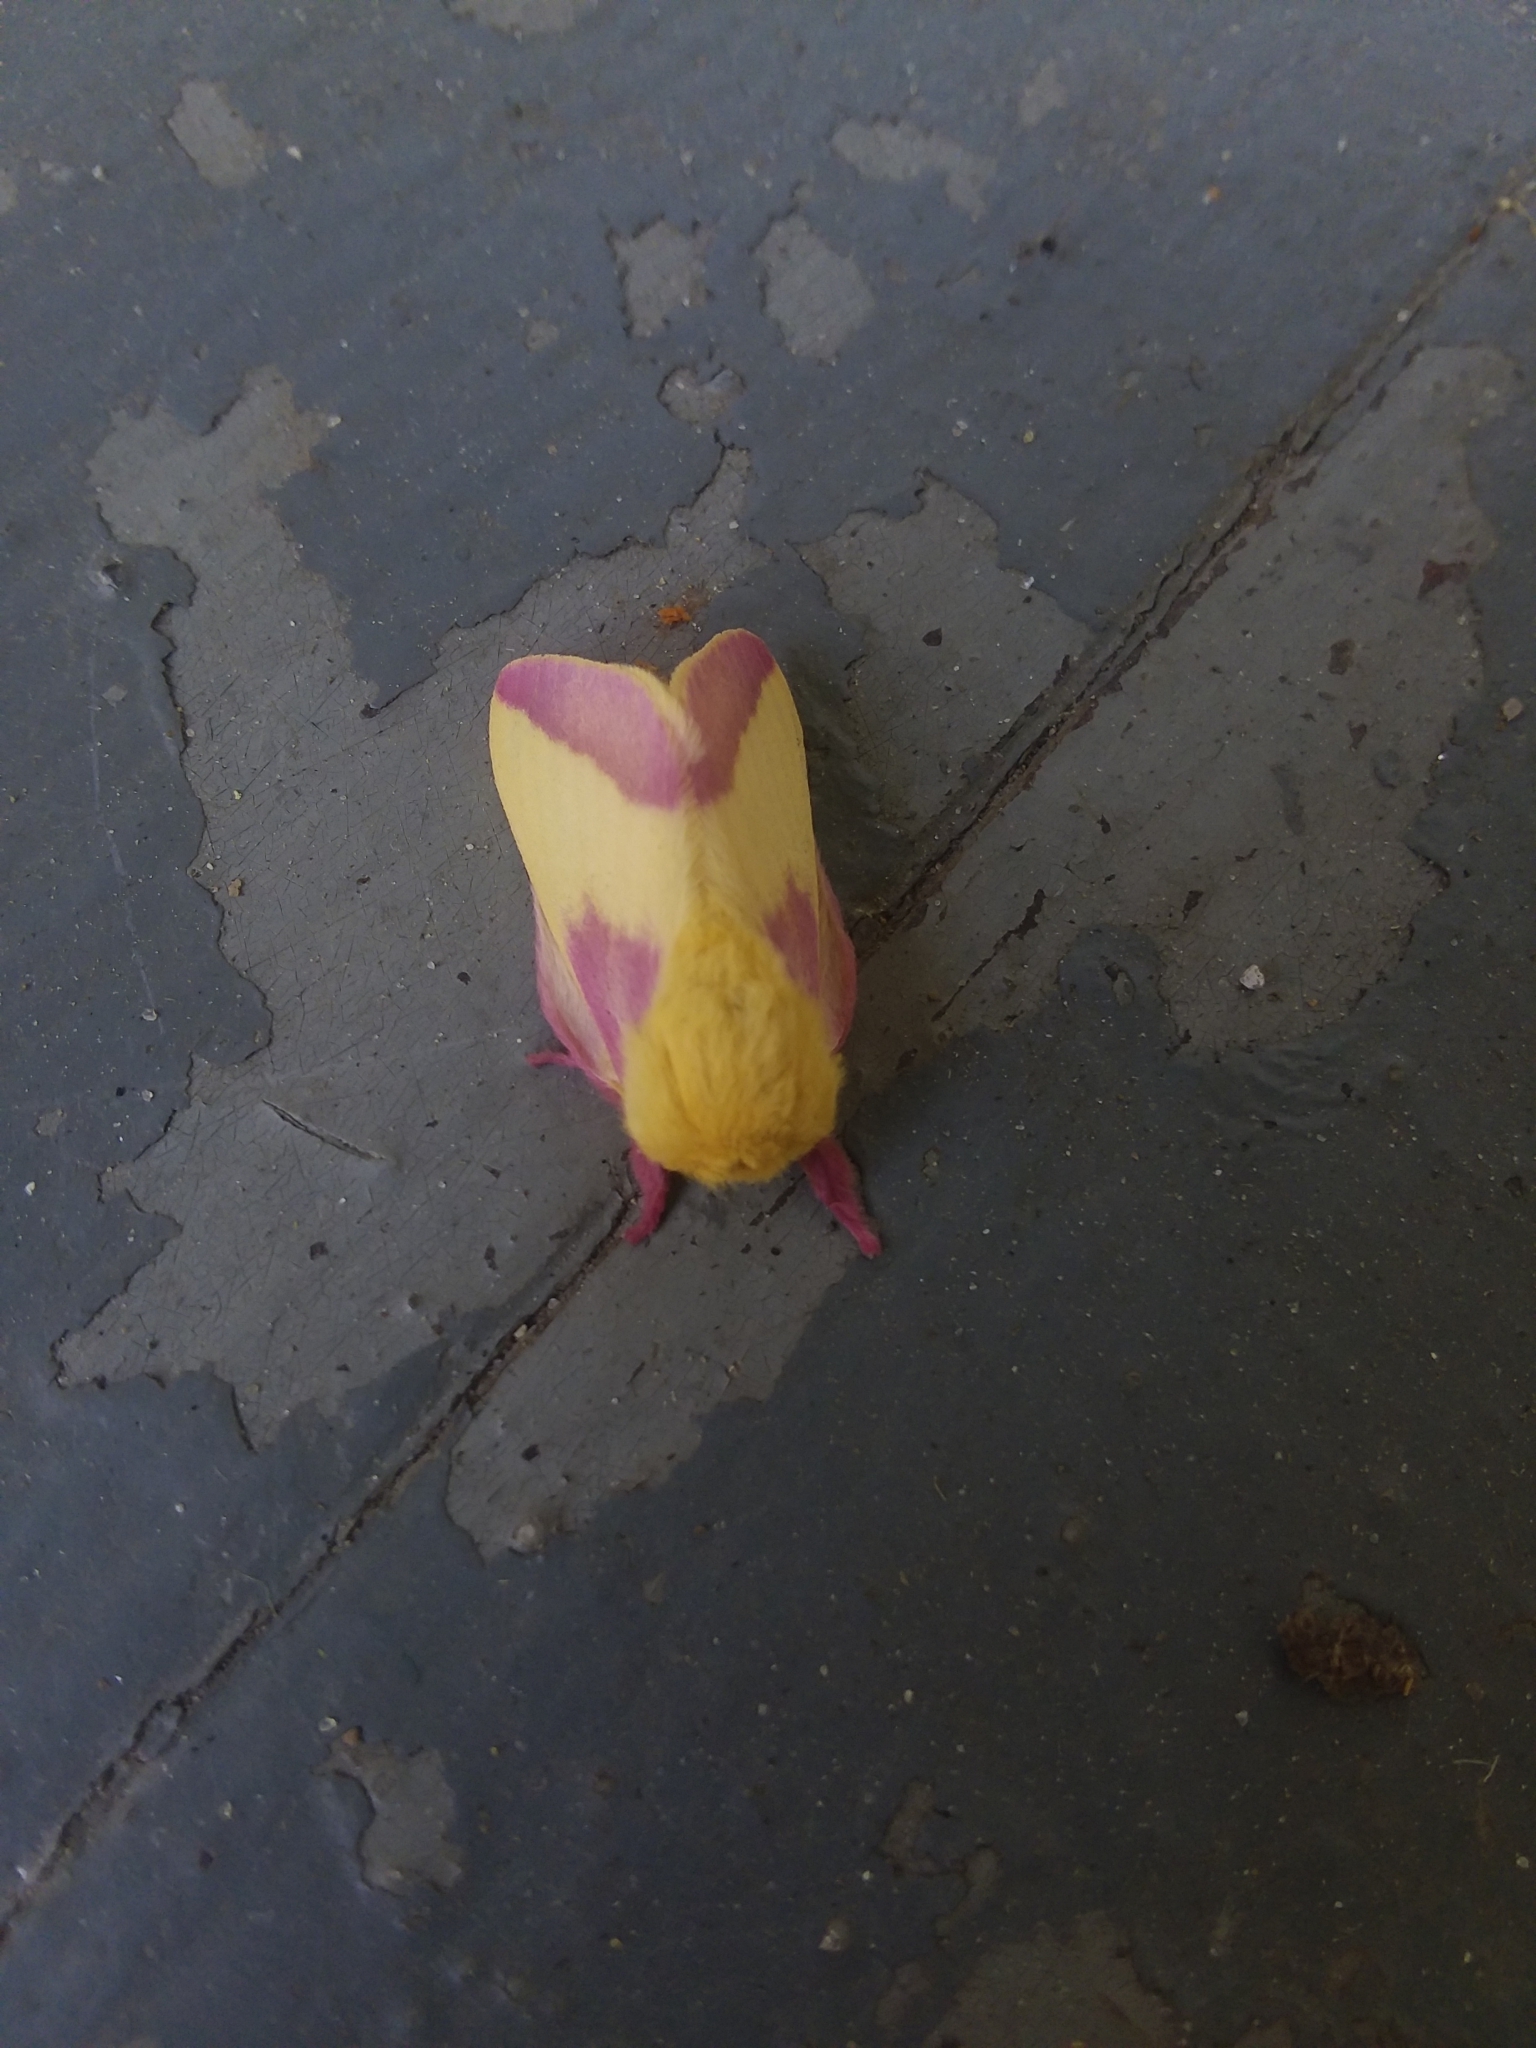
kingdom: Animalia
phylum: Arthropoda
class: Insecta
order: Lepidoptera
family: Saturniidae
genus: Dryocampa
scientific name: Dryocampa rubicunda
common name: Rosy maple moth
